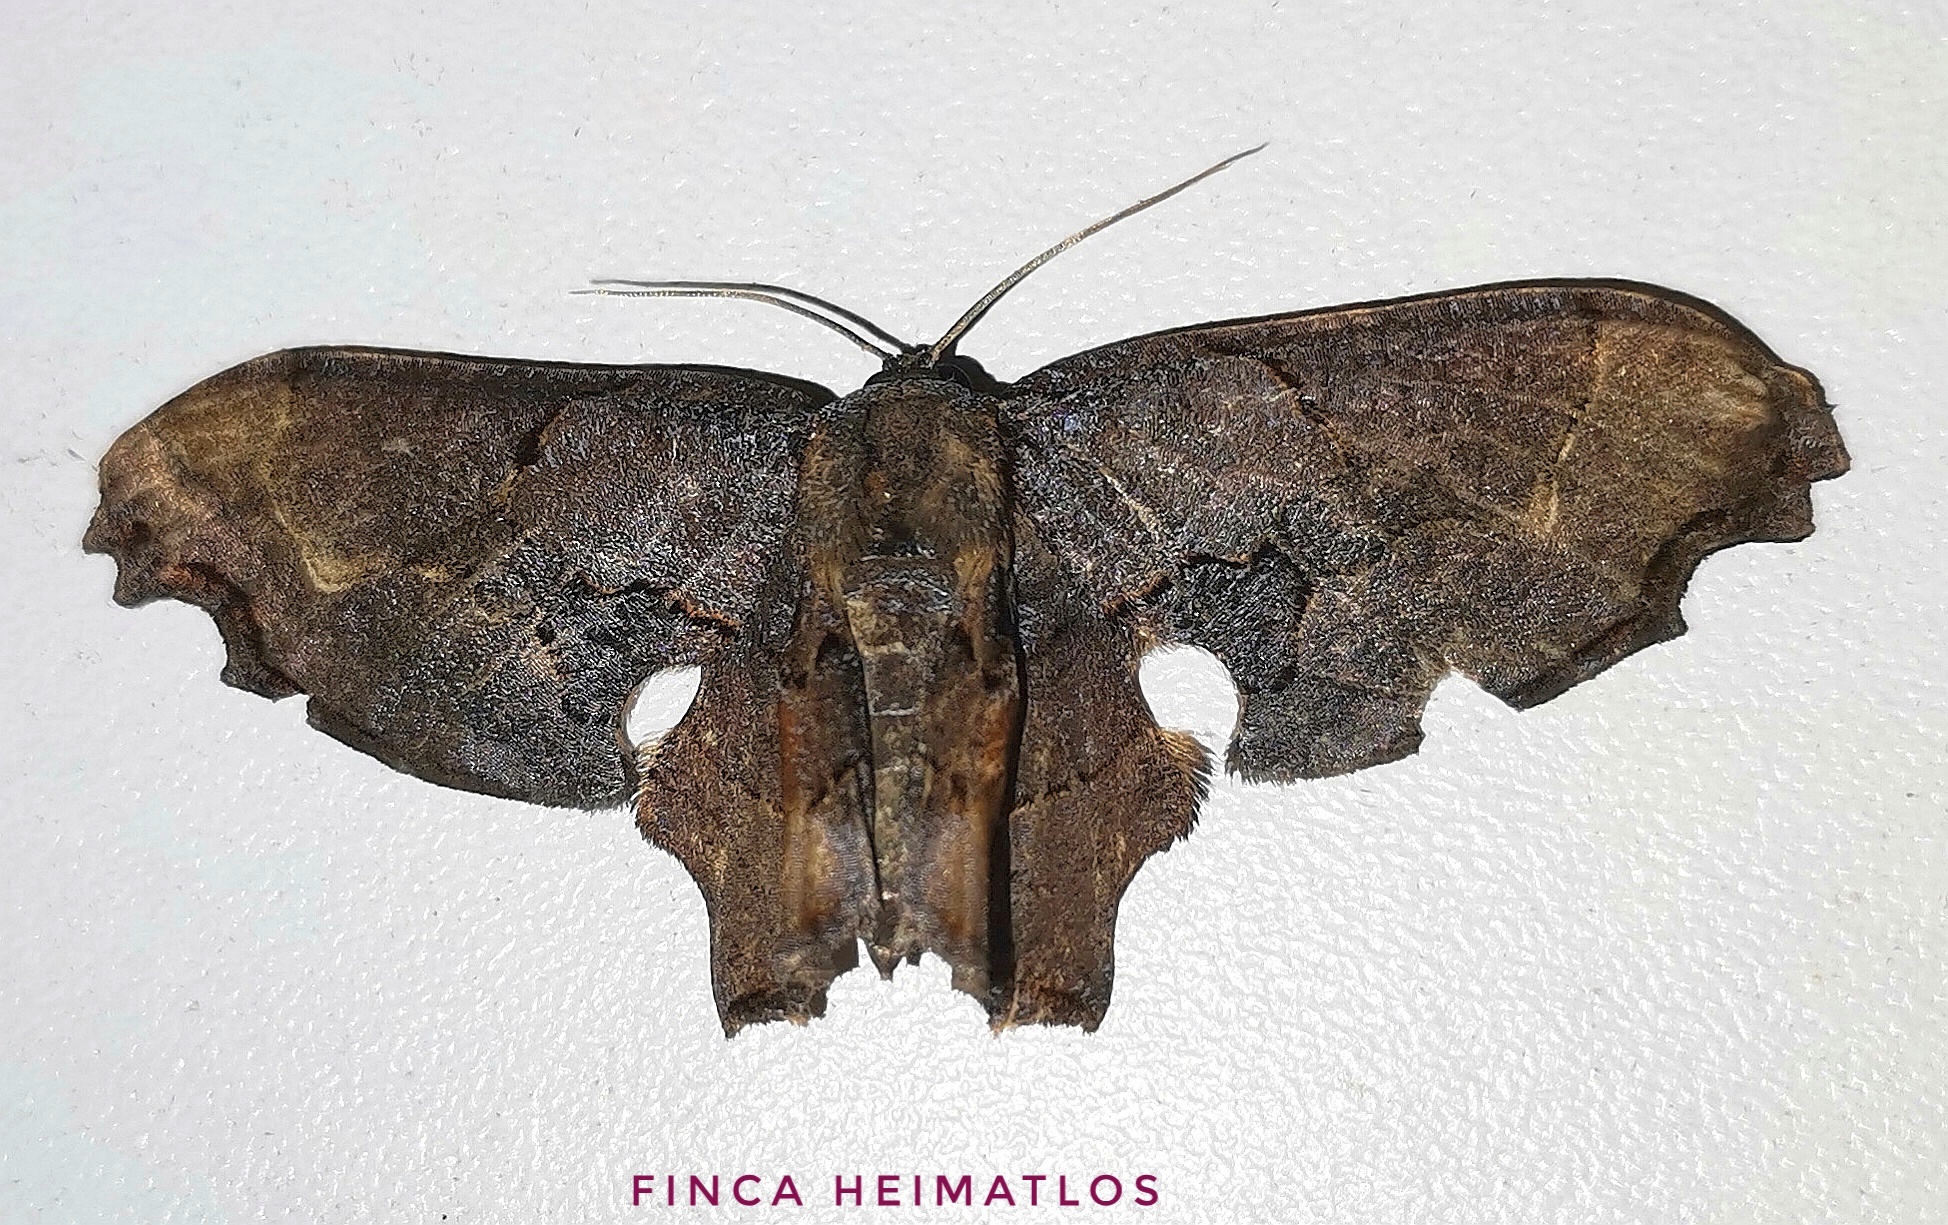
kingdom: Animalia
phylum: Arthropoda
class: Insecta
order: Lepidoptera
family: Uraniidae
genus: Epiplema
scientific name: Epiplema Erosia veninotata
